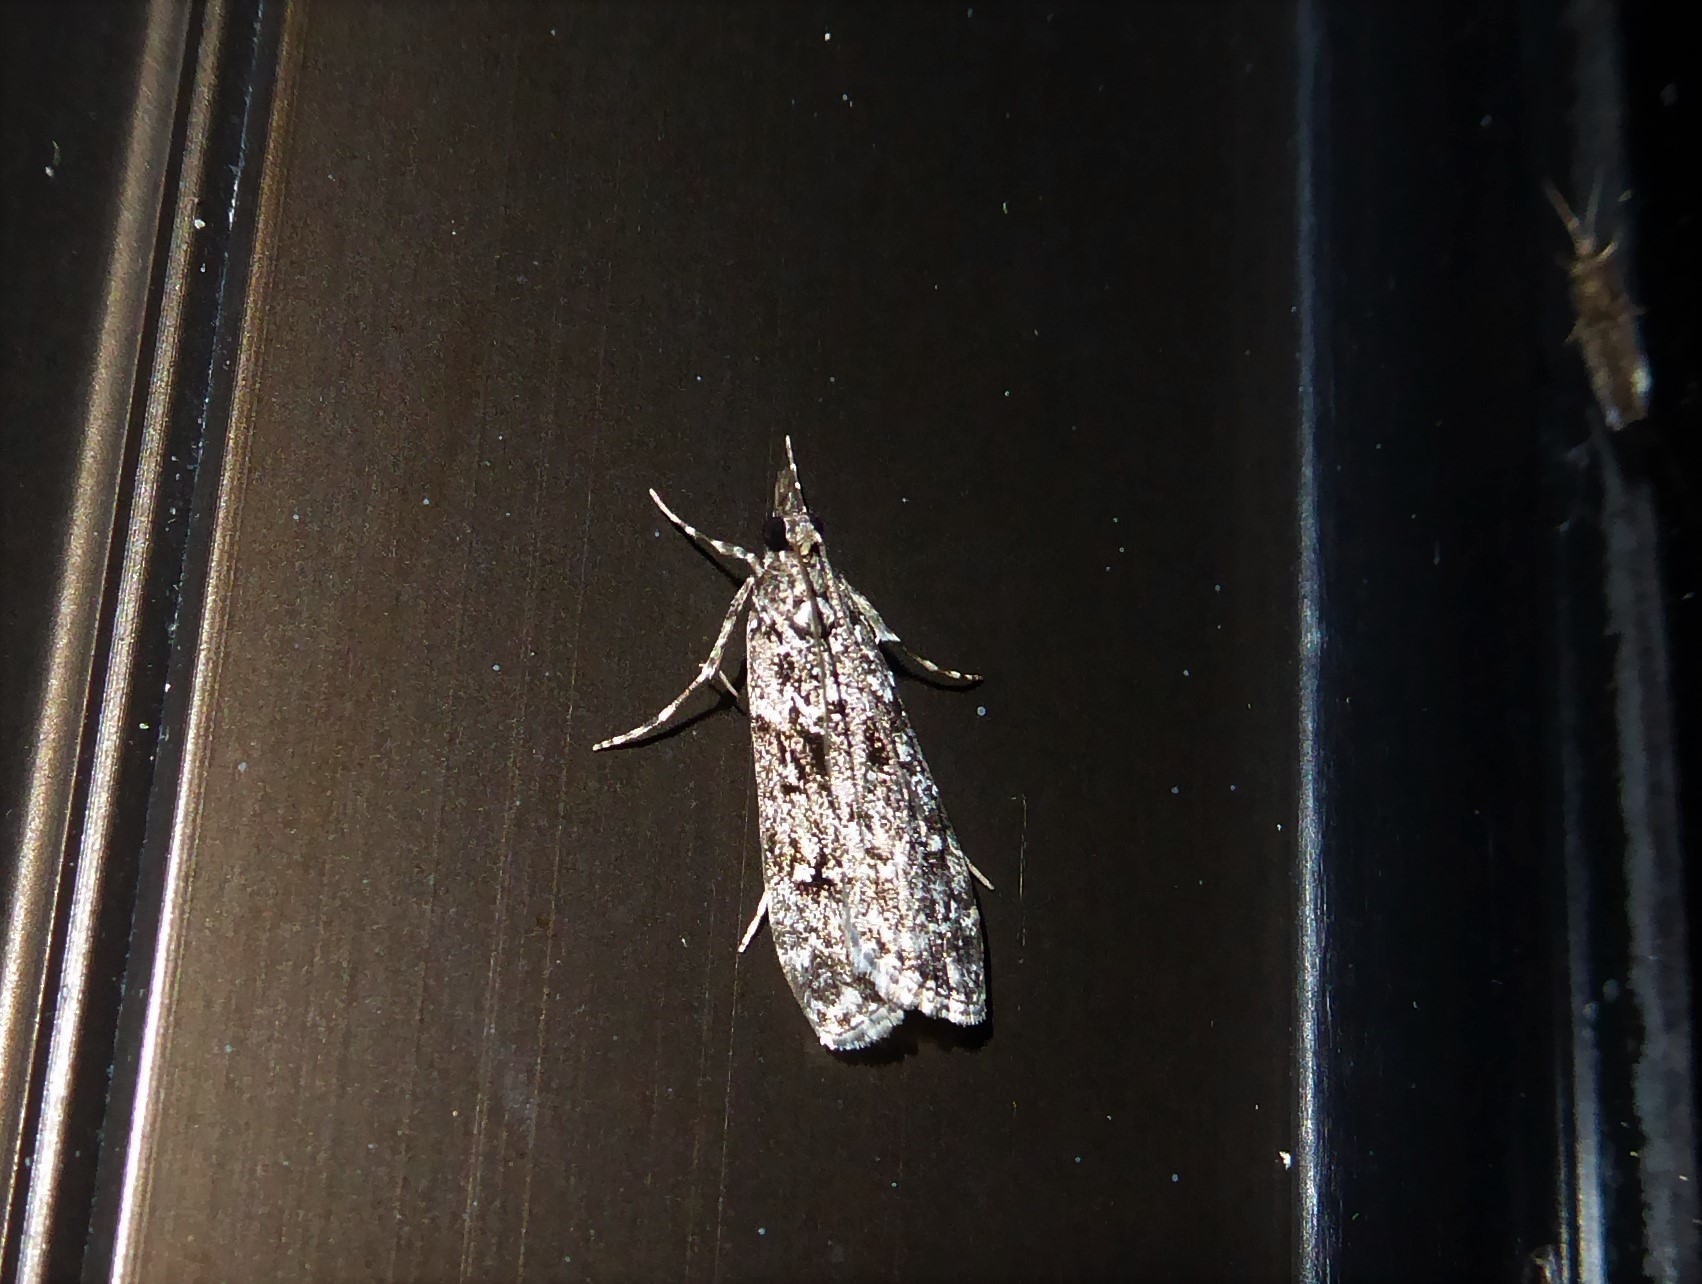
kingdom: Animalia
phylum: Arthropoda
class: Insecta
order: Lepidoptera
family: Crambidae
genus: Eudonia
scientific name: Eudonia philerga
